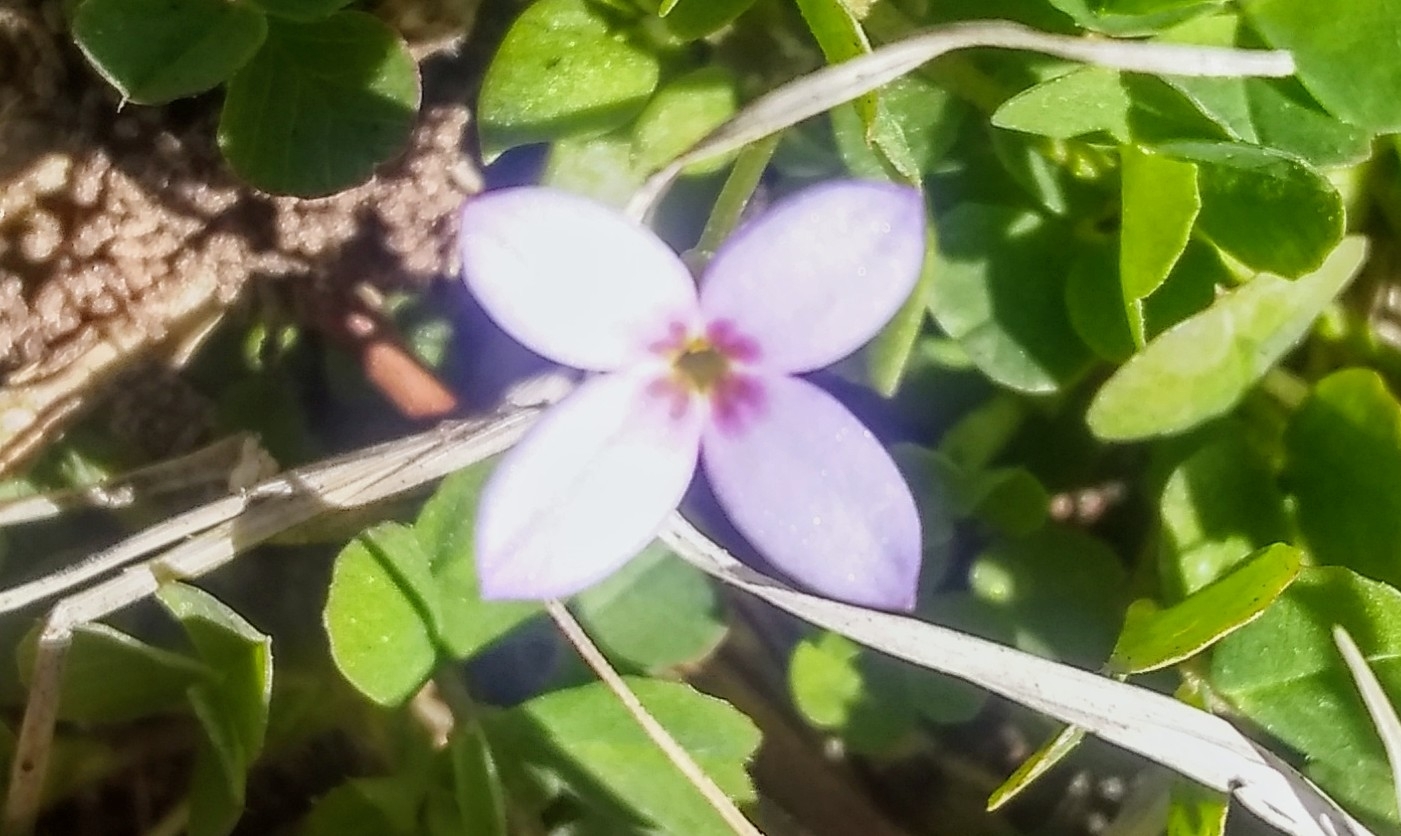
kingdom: Plantae
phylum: Tracheophyta
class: Magnoliopsida
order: Gentianales
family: Rubiaceae
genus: Houstonia
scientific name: Houstonia pusilla
